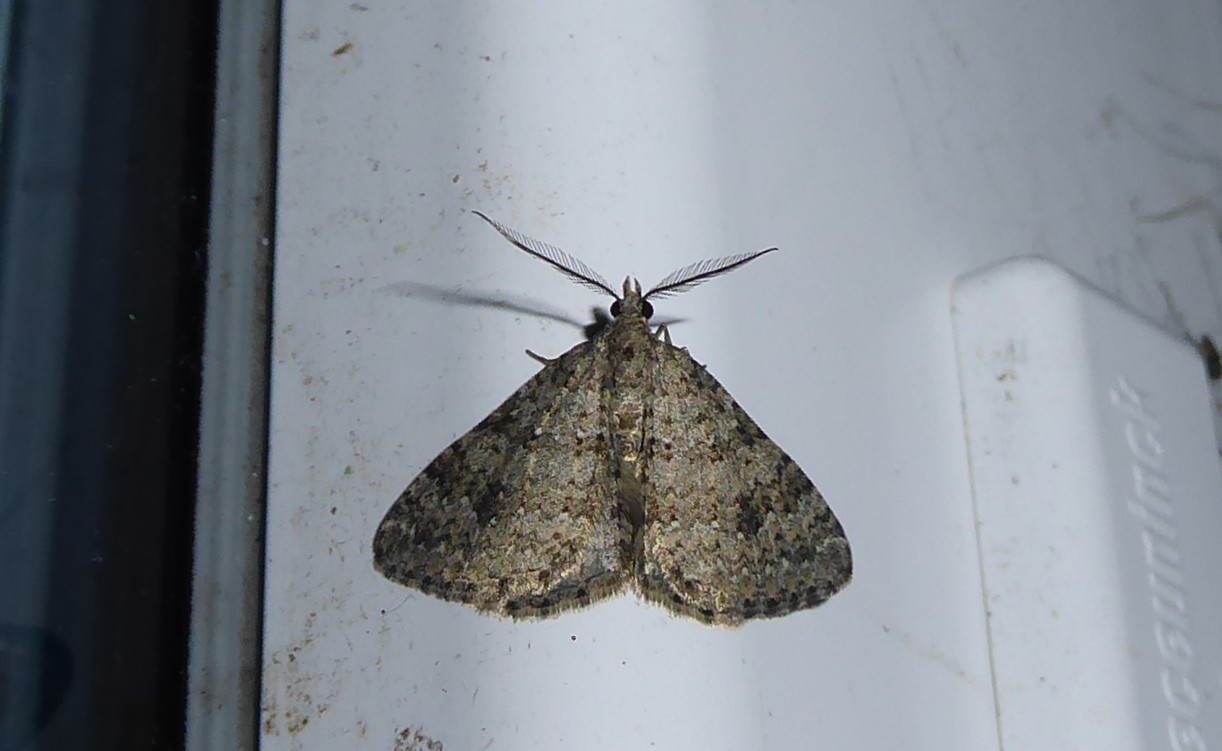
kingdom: Animalia
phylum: Arthropoda
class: Insecta
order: Lepidoptera
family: Geometridae
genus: Helastia
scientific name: Helastia corcularia
